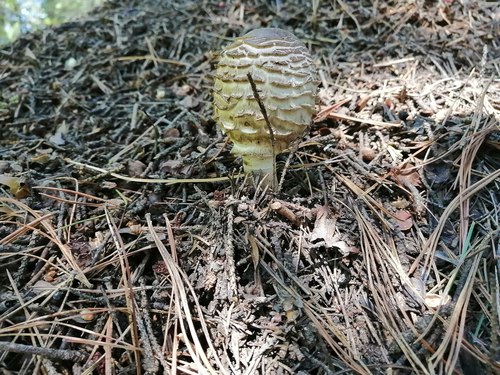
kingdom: Fungi
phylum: Basidiomycota
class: Agaricomycetes
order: Agaricales
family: Agaricaceae
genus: Chlorophyllum
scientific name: Chlorophyllum olivieri
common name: Conifer parasol
